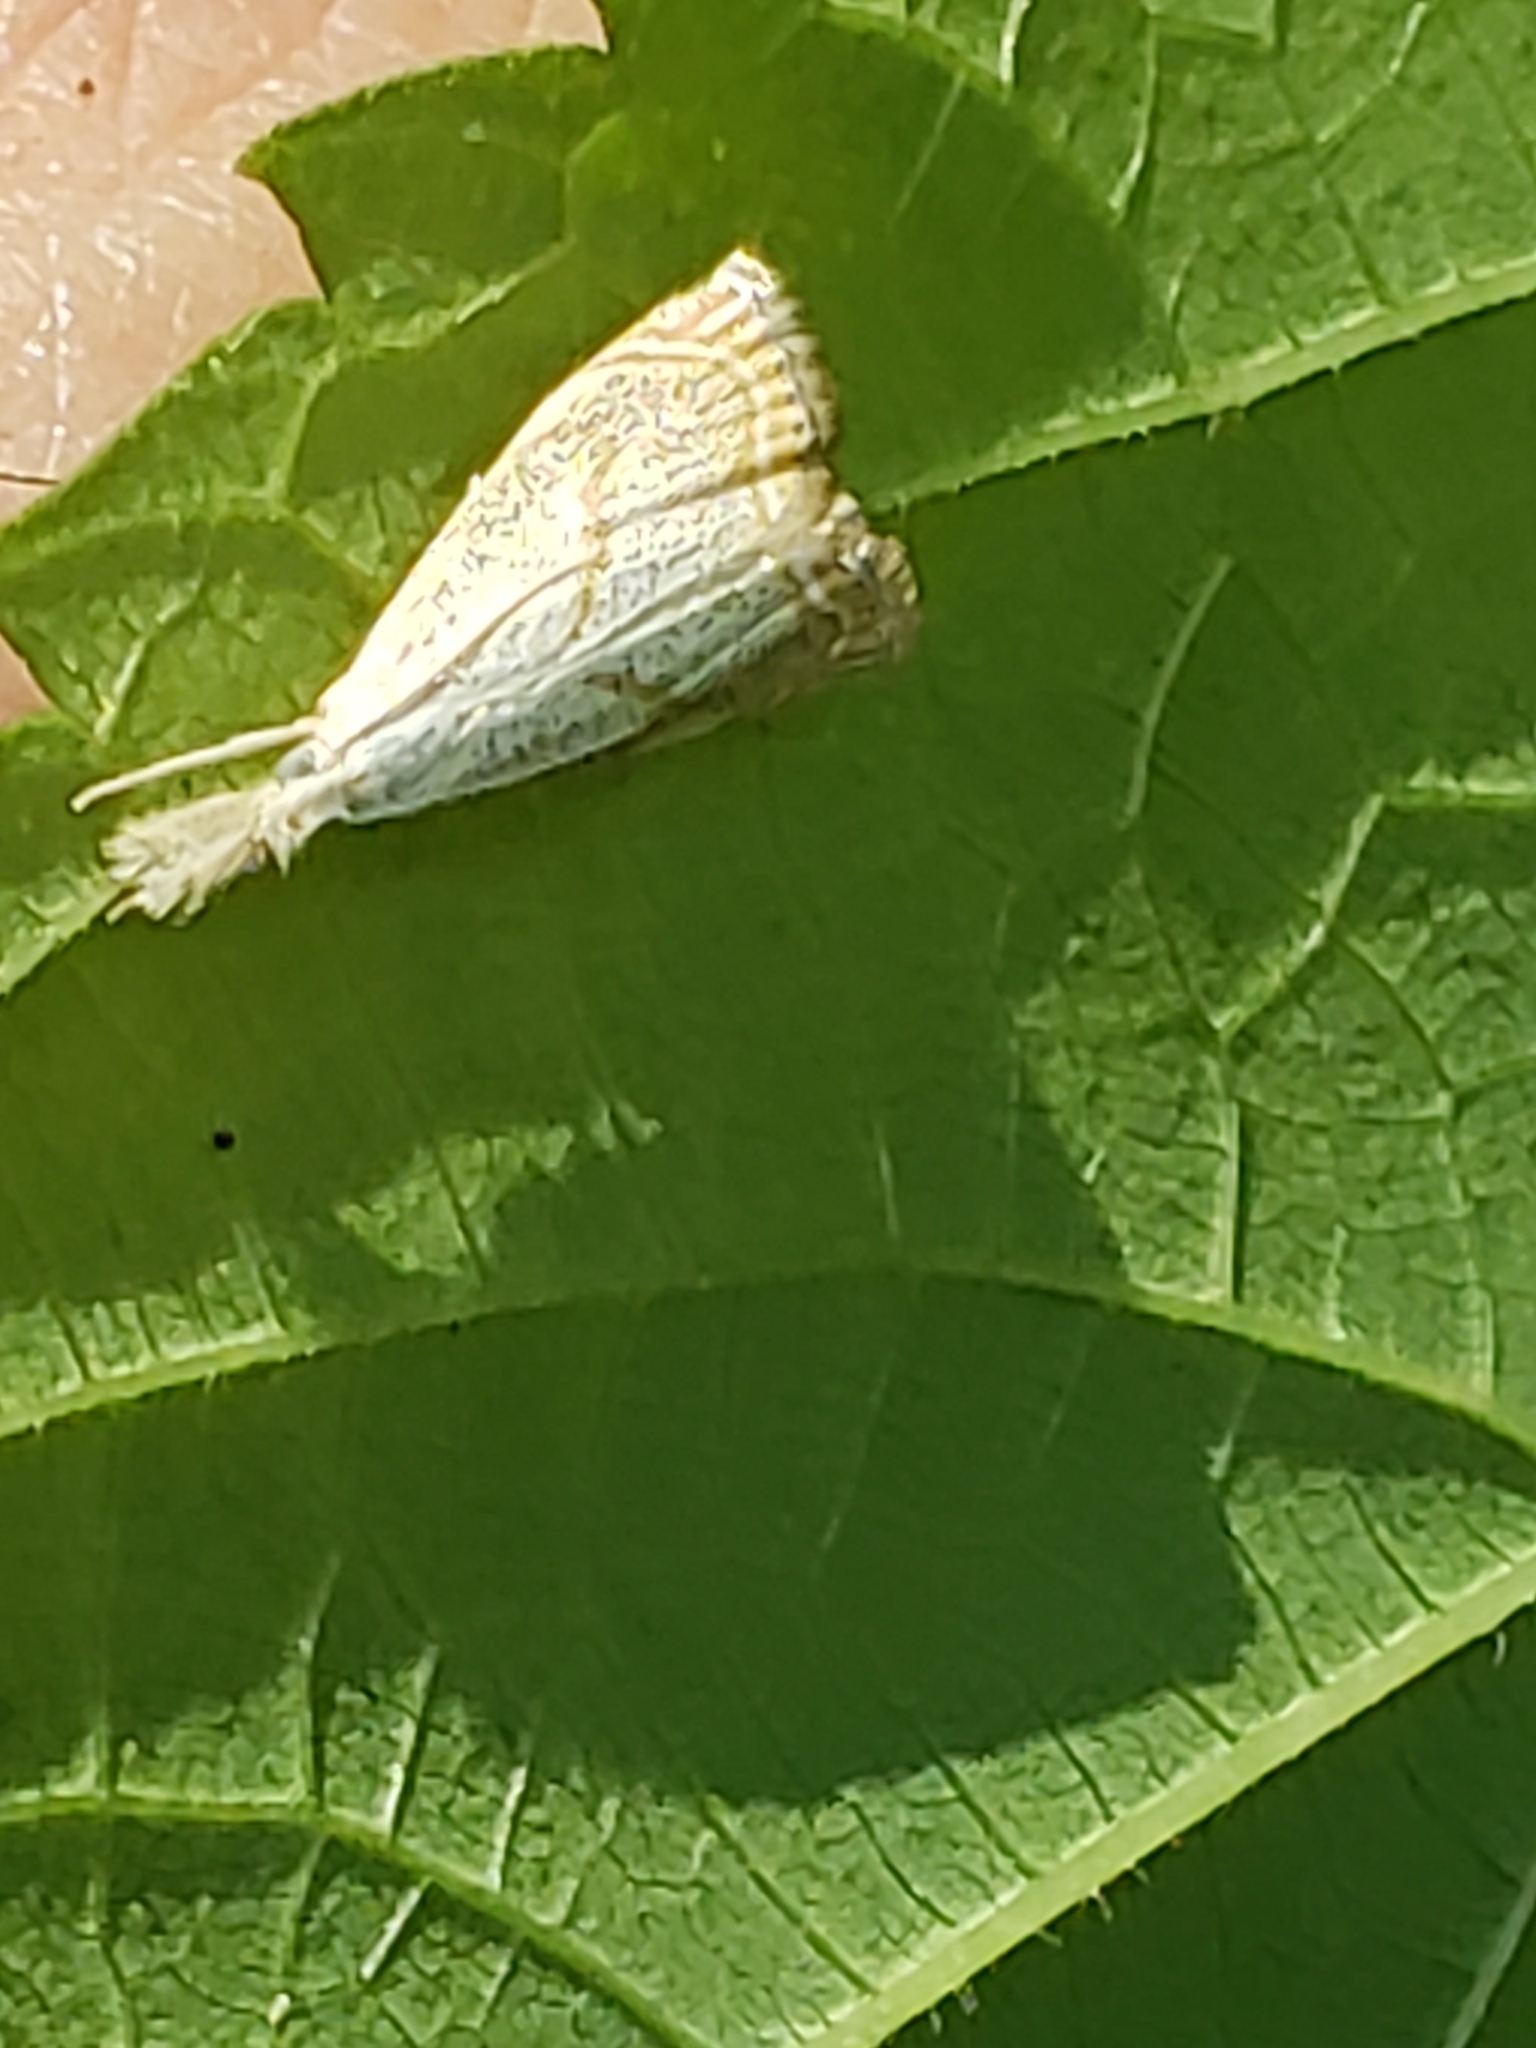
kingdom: Animalia
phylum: Arthropoda
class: Insecta
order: Lepidoptera
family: Crambidae
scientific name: Crambidae
